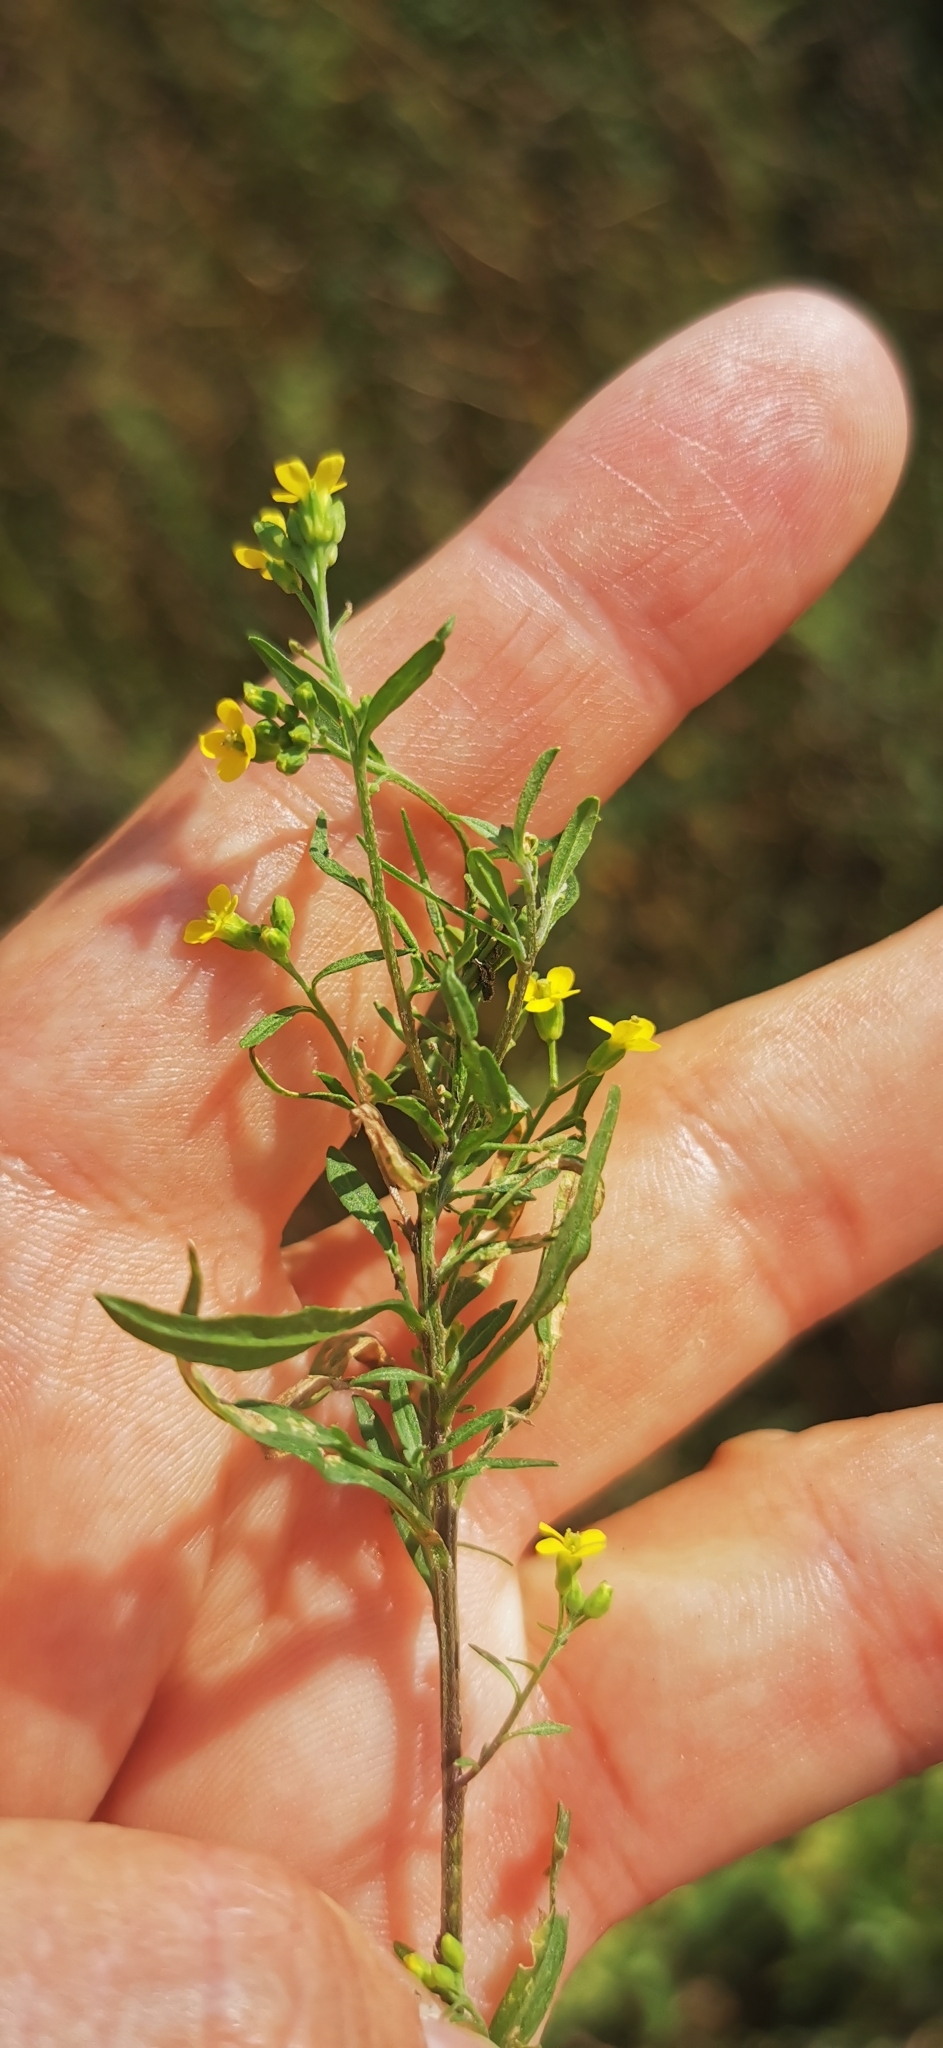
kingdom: Plantae
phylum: Tracheophyta
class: Magnoliopsida
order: Brassicales
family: Brassicaceae
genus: Erysimum
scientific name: Erysimum cheiranthoides
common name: Treacle mustard
